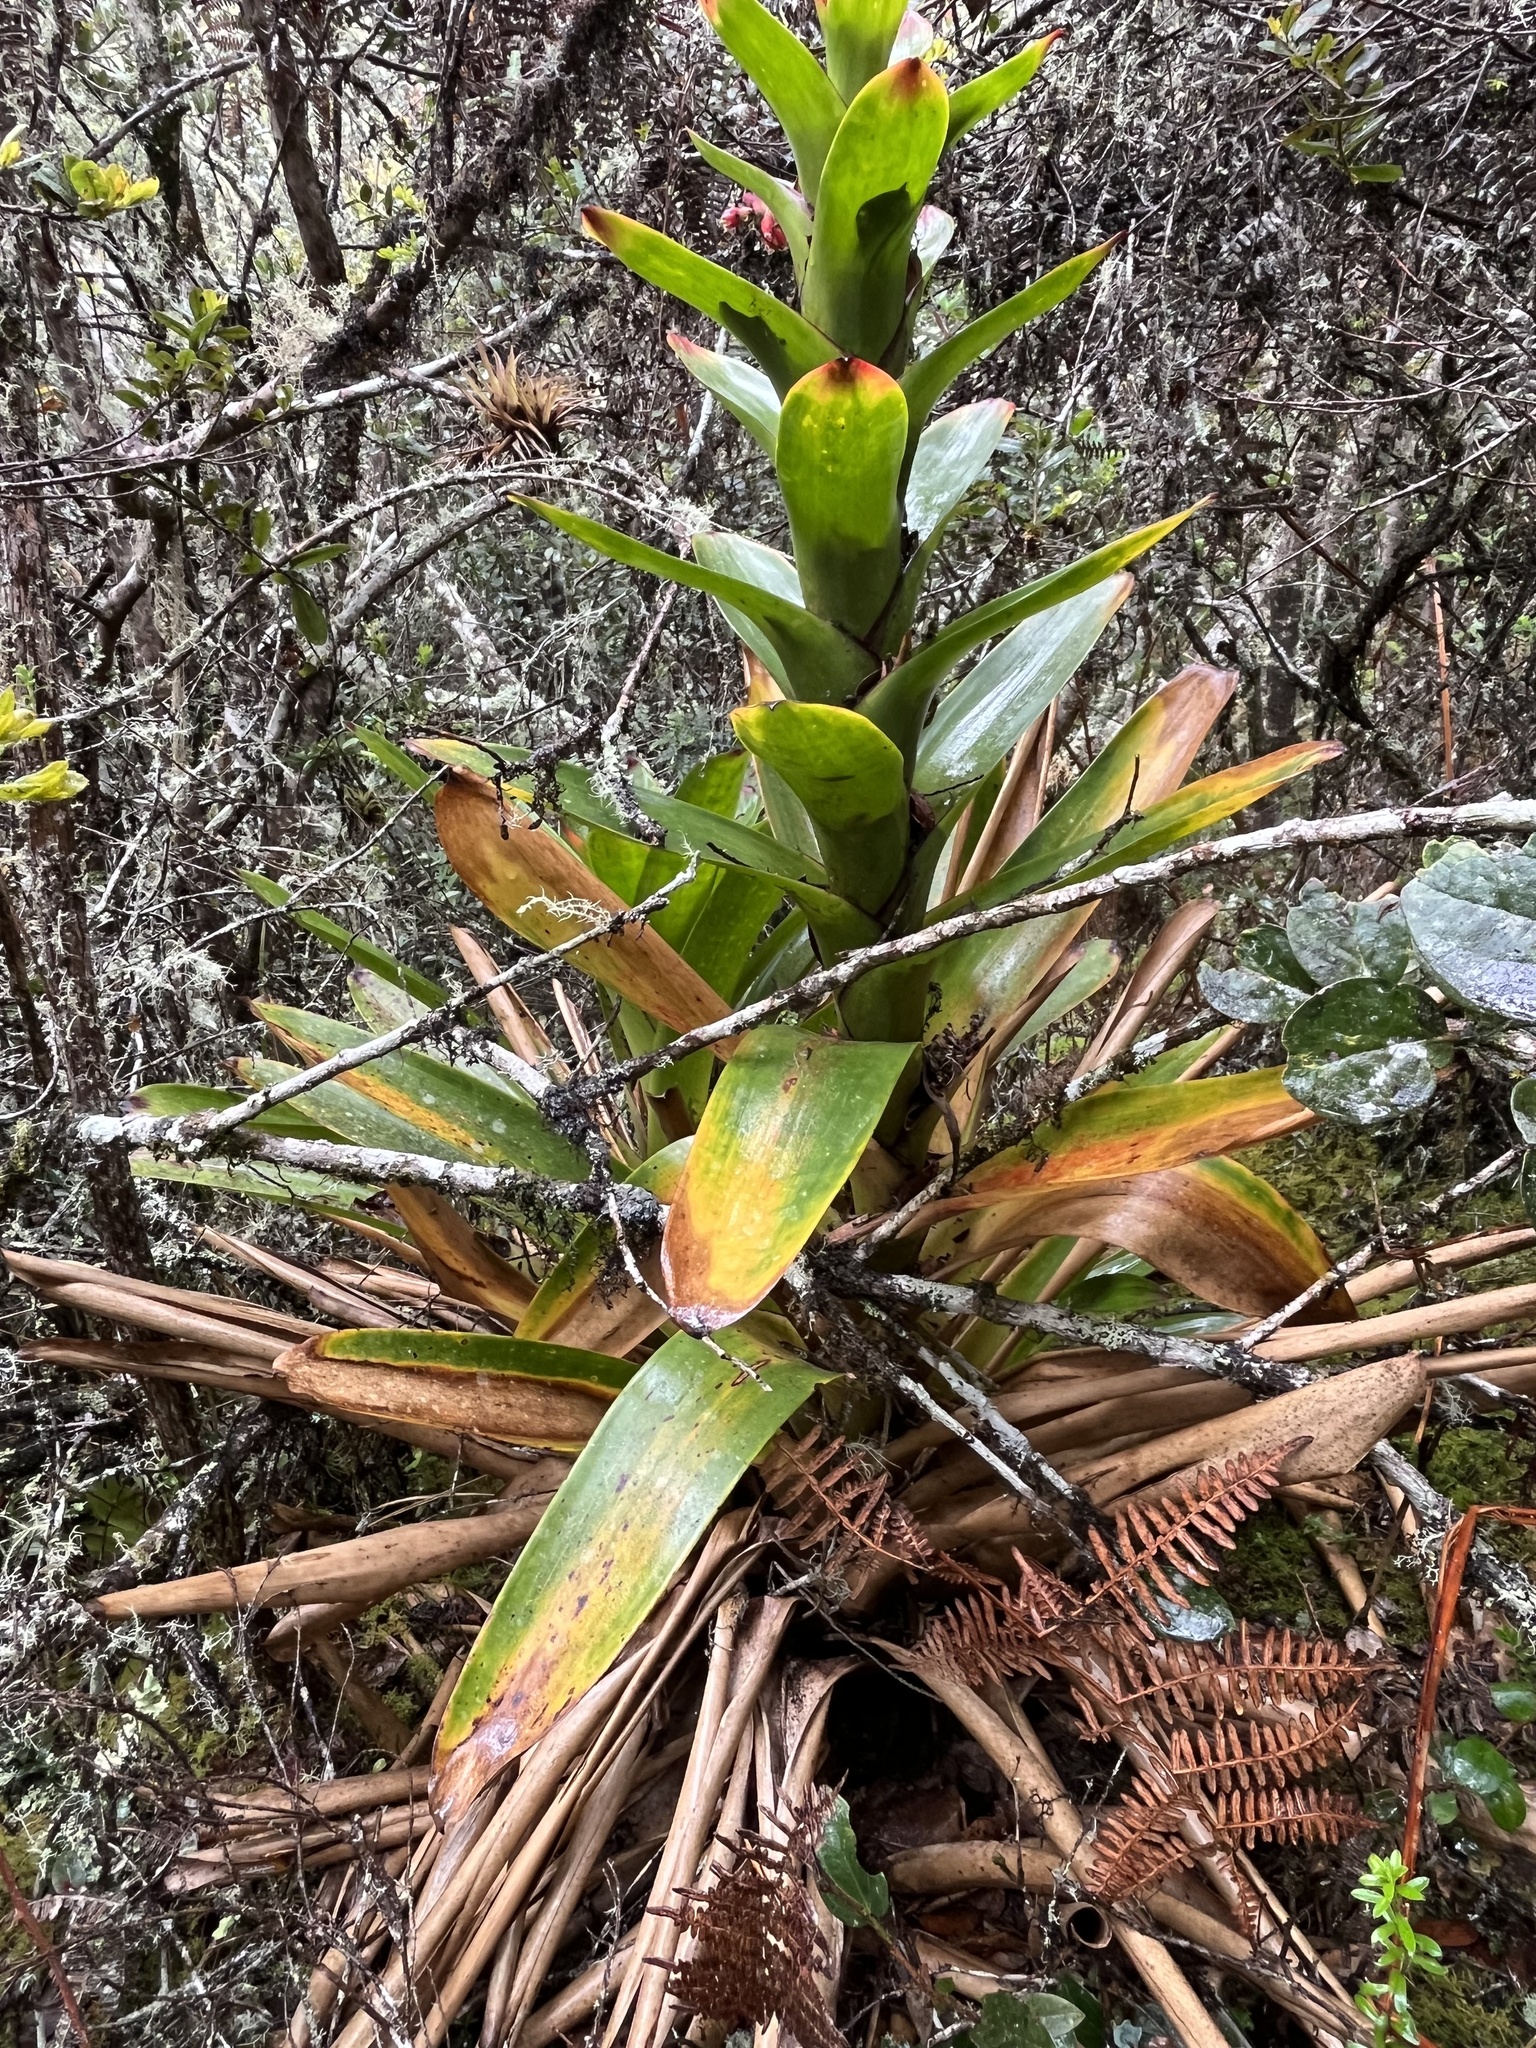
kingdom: Plantae
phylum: Tracheophyta
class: Liliopsida
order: Poales
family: Bromeliaceae
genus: Guzmania
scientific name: Guzmania gloriosa
